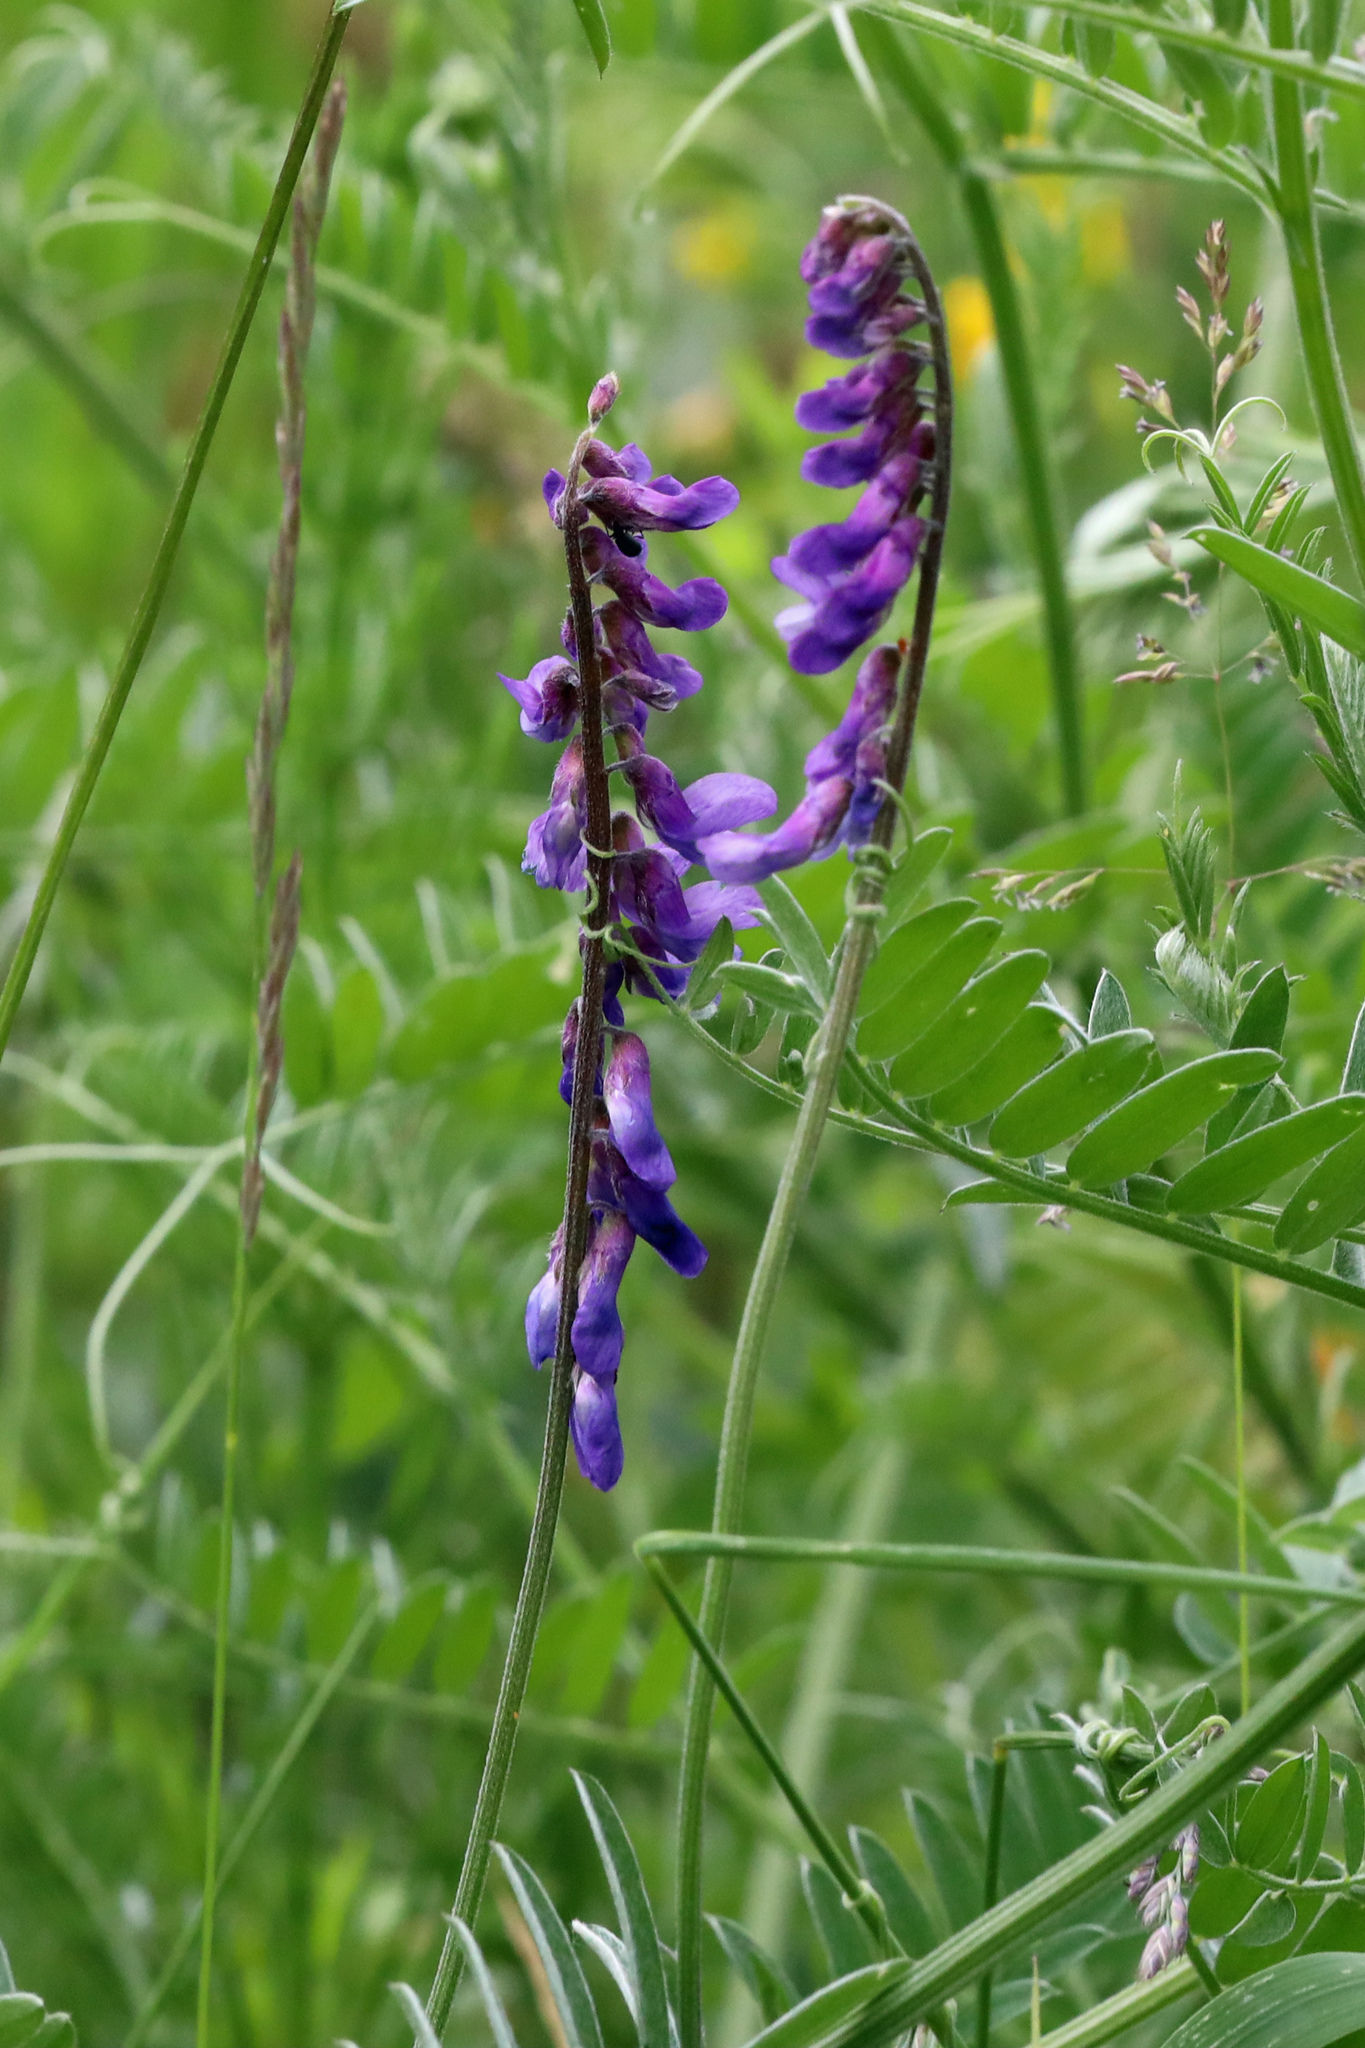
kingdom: Plantae
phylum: Tracheophyta
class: Magnoliopsida
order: Fabales
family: Fabaceae
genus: Vicia
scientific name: Vicia cracca
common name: Bird vetch
